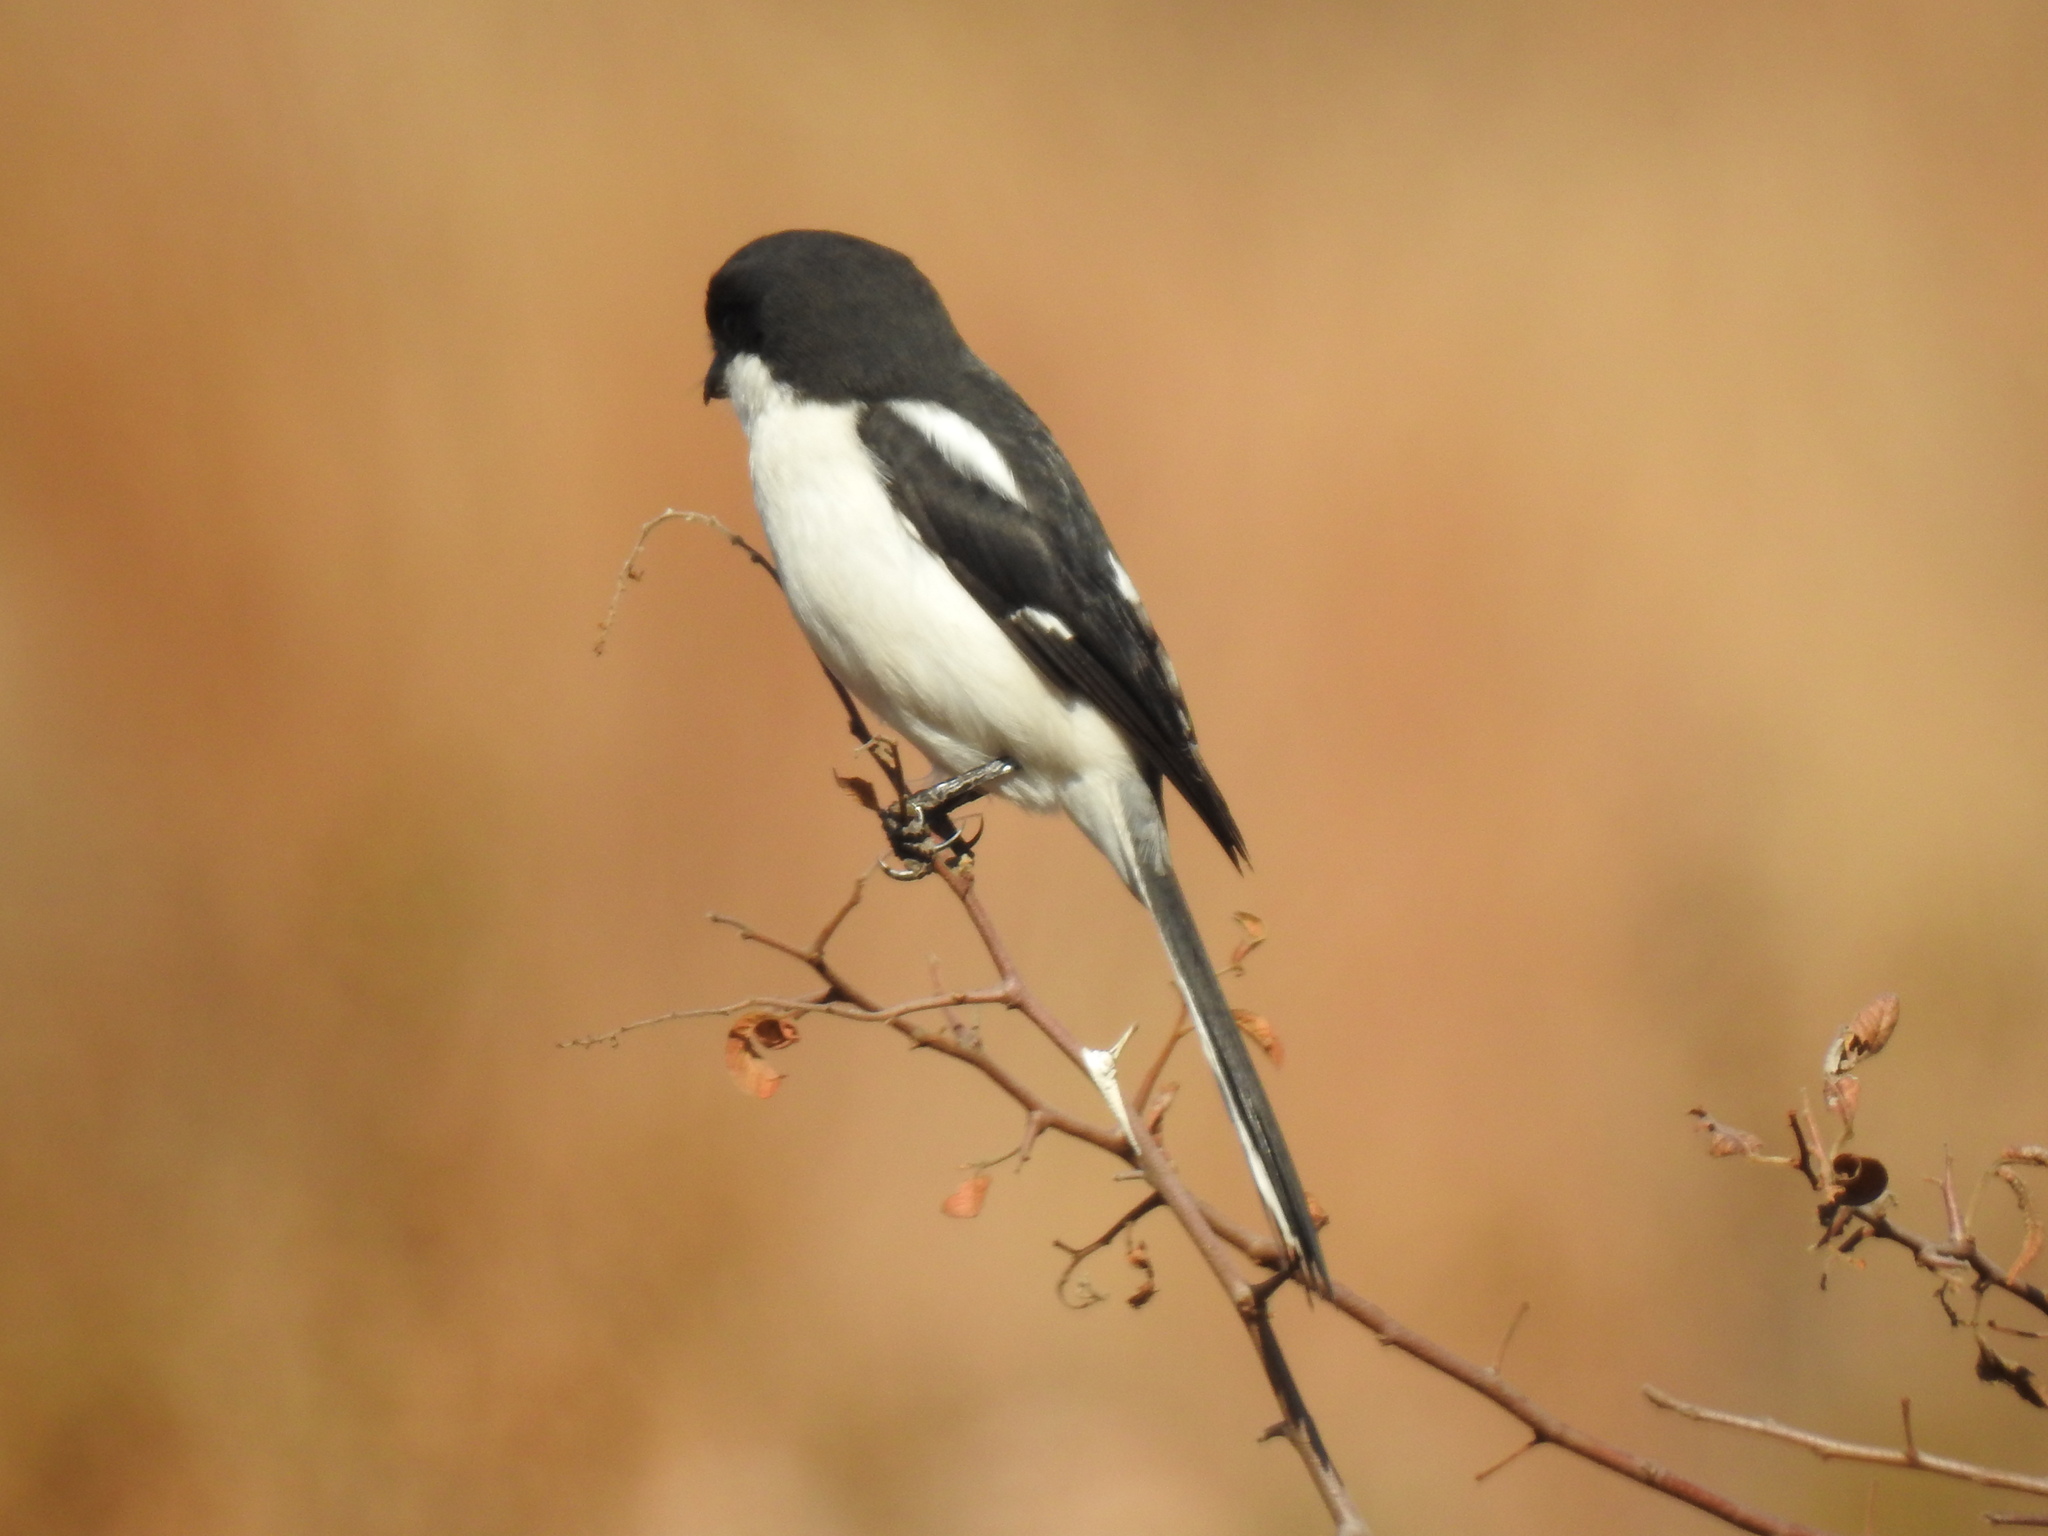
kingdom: Animalia
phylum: Chordata
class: Aves
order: Passeriformes
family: Laniidae
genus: Lanius
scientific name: Lanius collaris
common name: Southern fiscal
